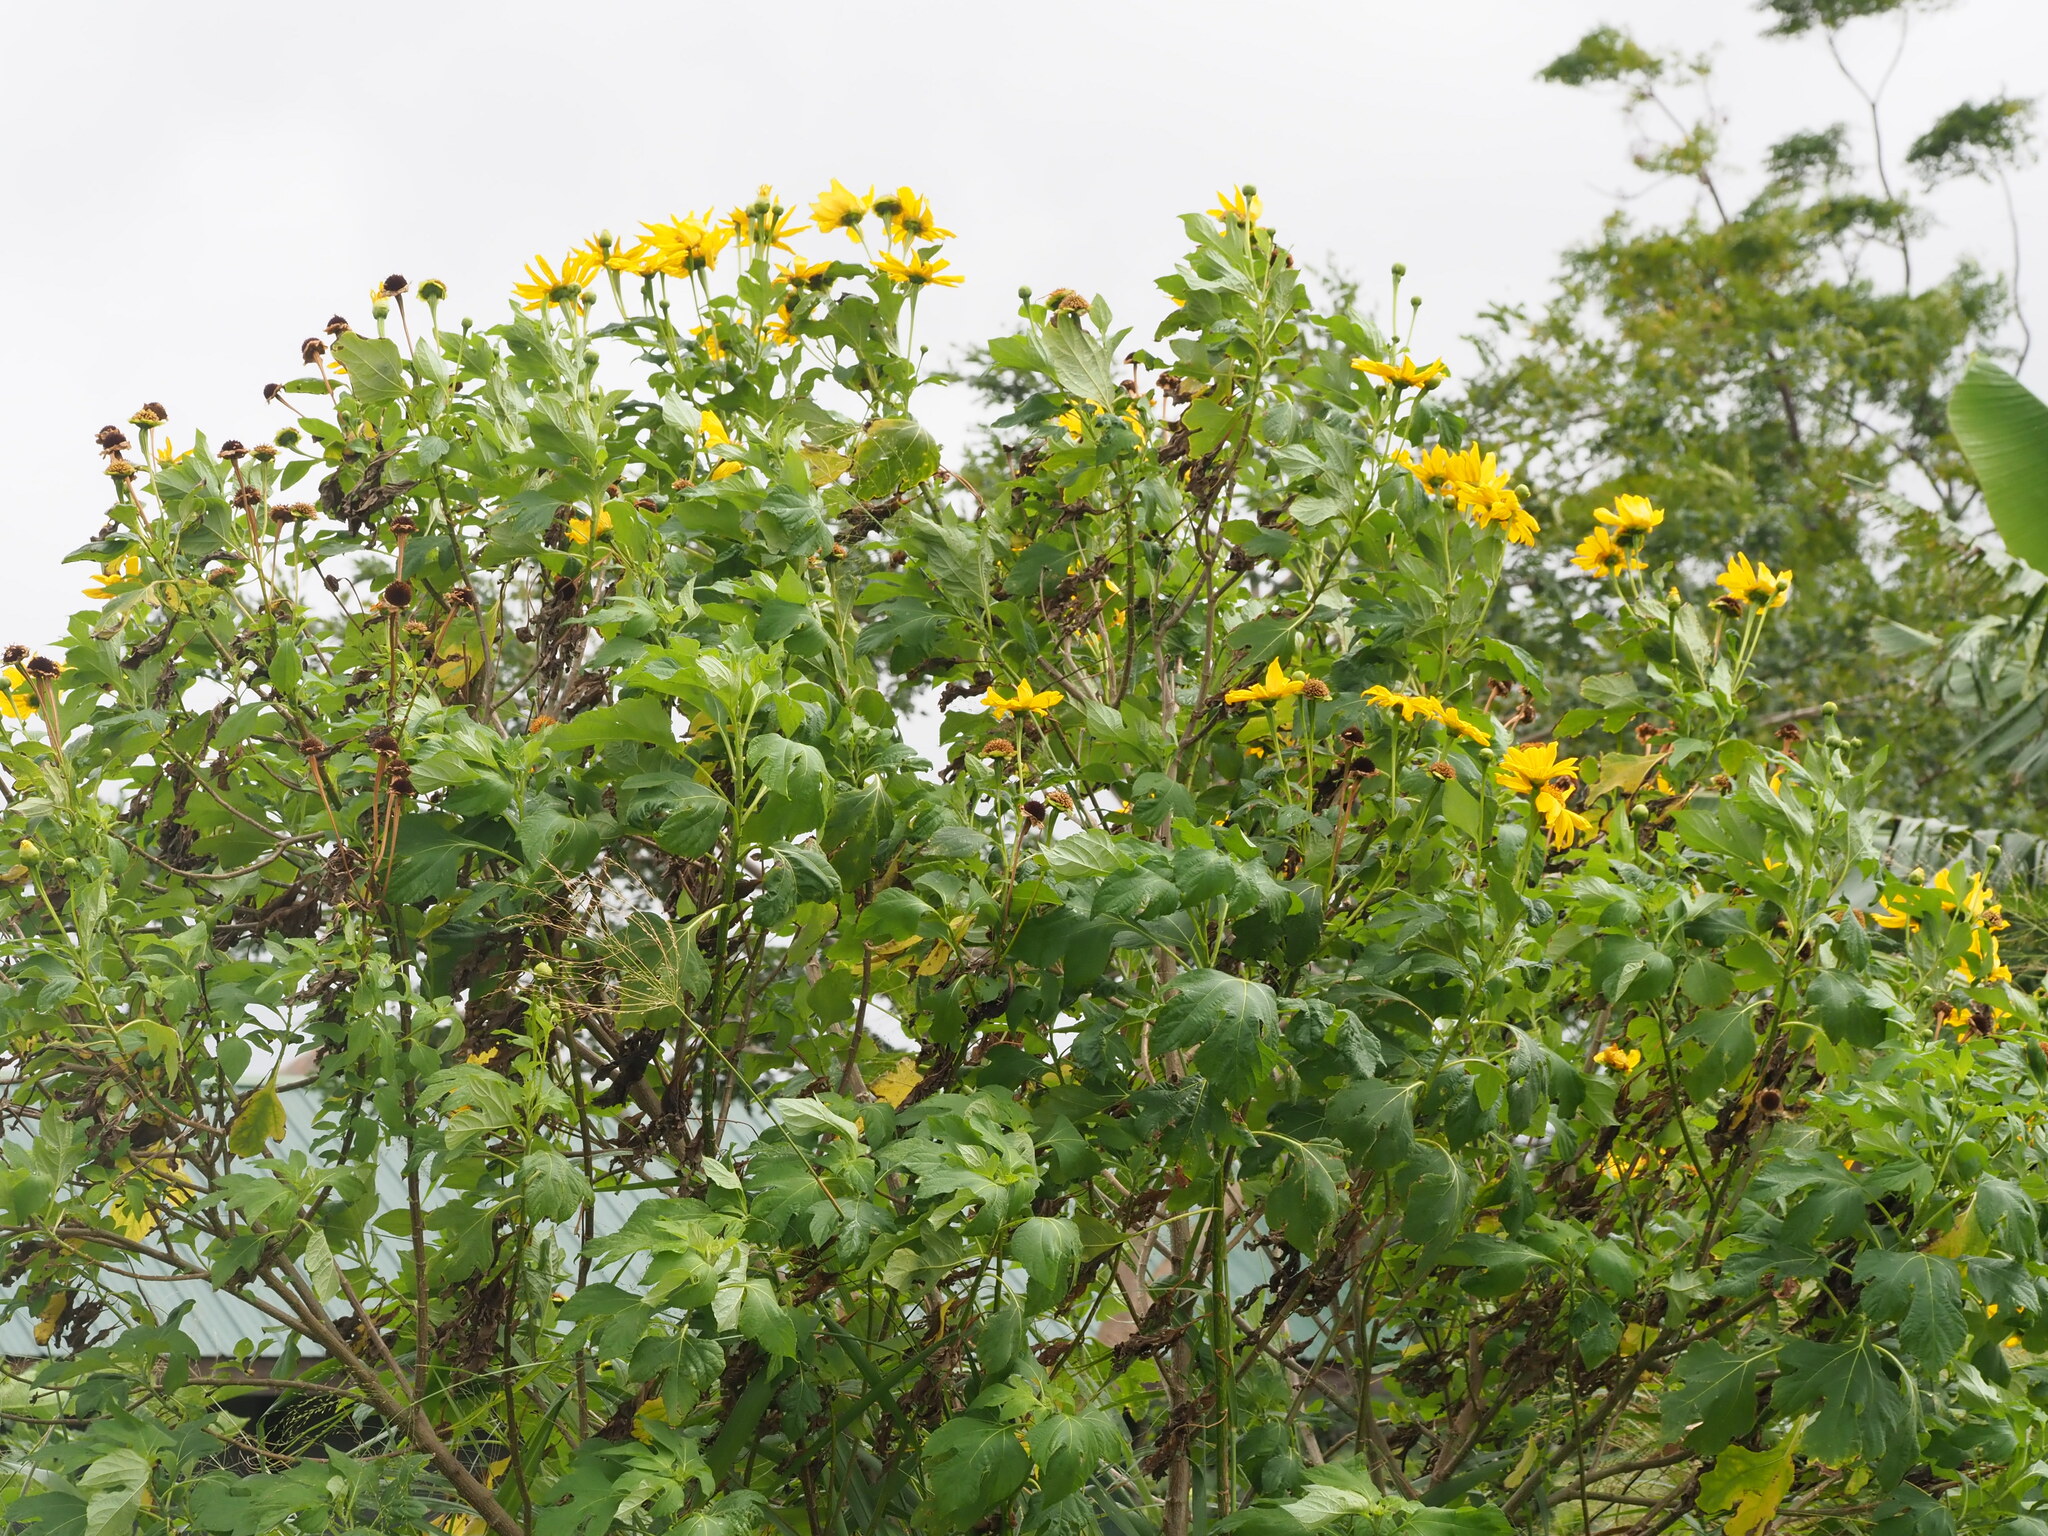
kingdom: Plantae
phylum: Tracheophyta
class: Magnoliopsida
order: Asterales
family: Asteraceae
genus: Tithonia
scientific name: Tithonia diversifolia
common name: Tree marigold
